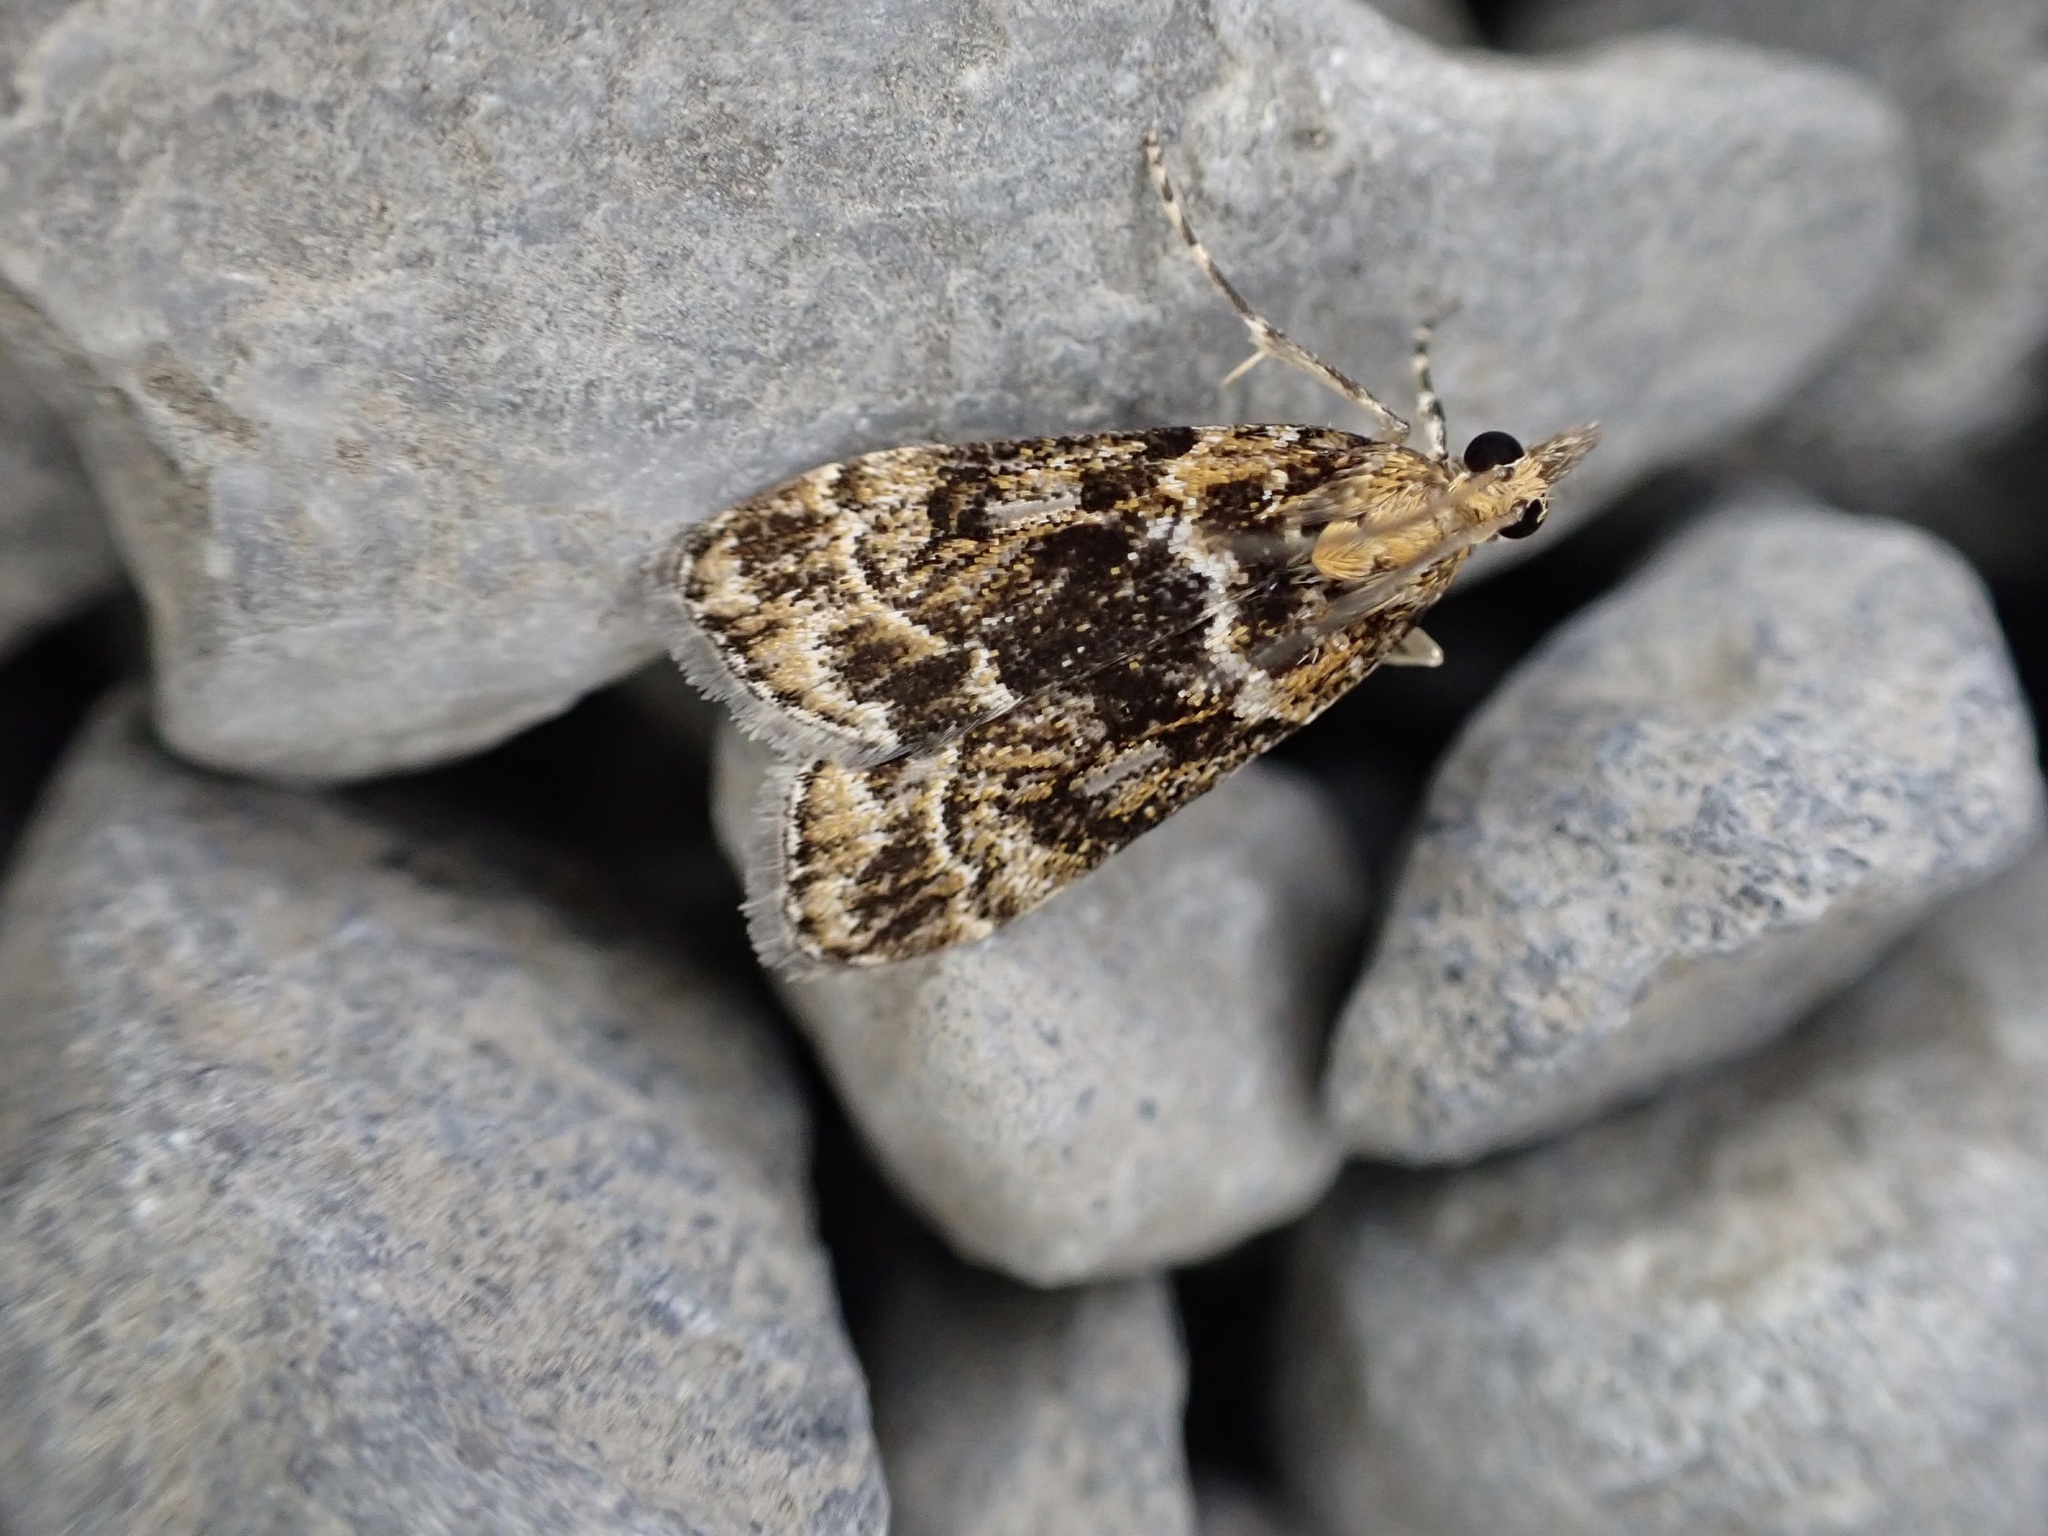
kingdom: Animalia
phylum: Arthropoda
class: Insecta
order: Lepidoptera
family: Crambidae
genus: Scoparia
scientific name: Scoparia animosa
